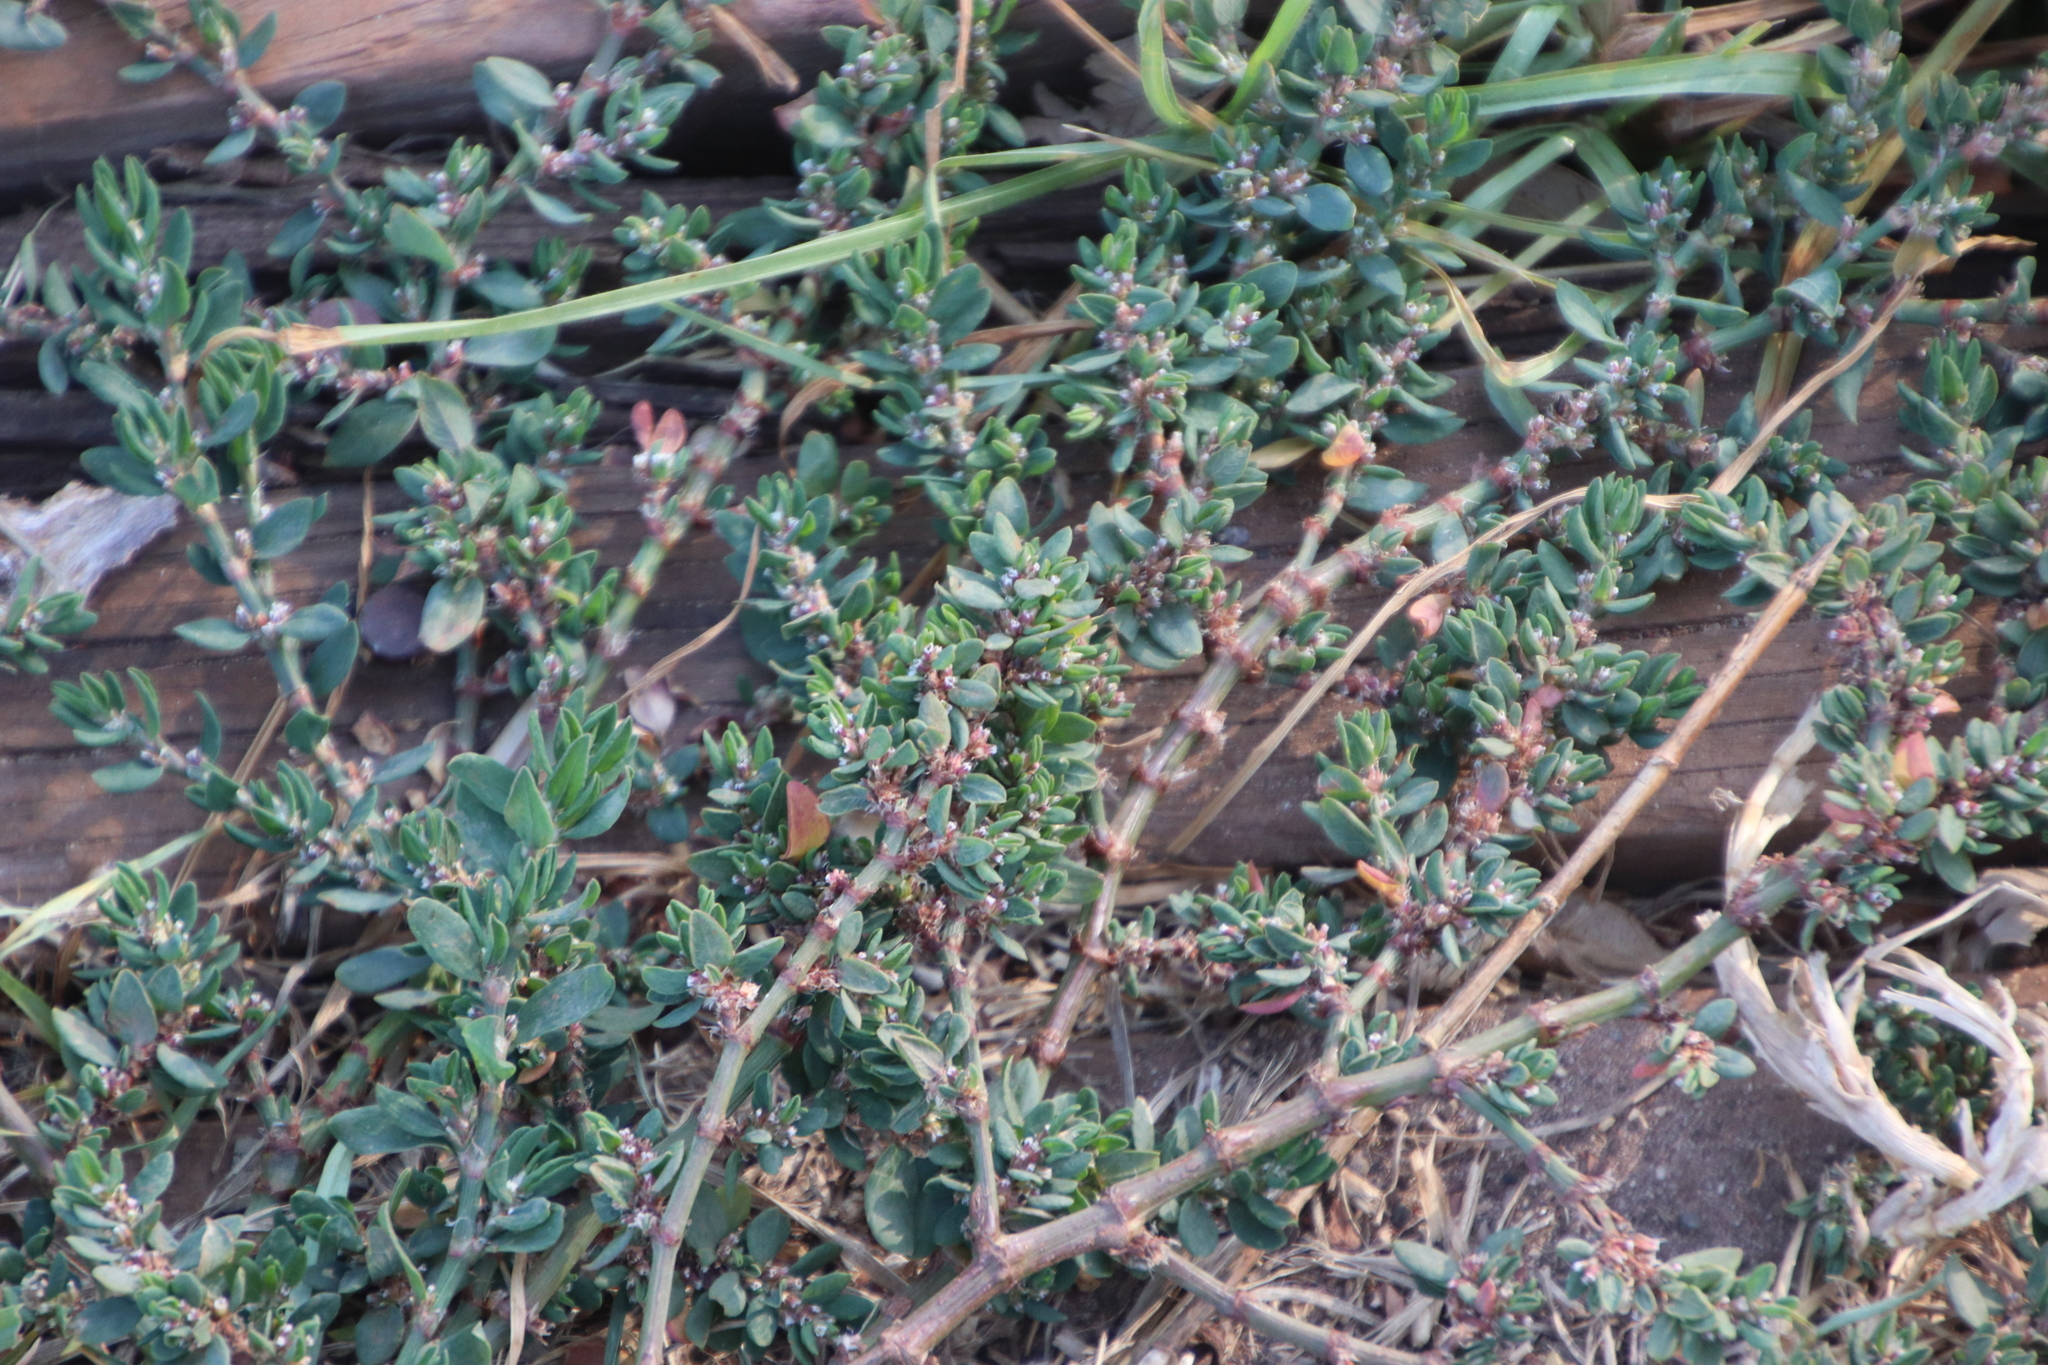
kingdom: Plantae
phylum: Tracheophyta
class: Magnoliopsida
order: Caryophyllales
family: Polygonaceae
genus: Polygonum
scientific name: Polygonum aviculare
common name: Prostrate knotweed
